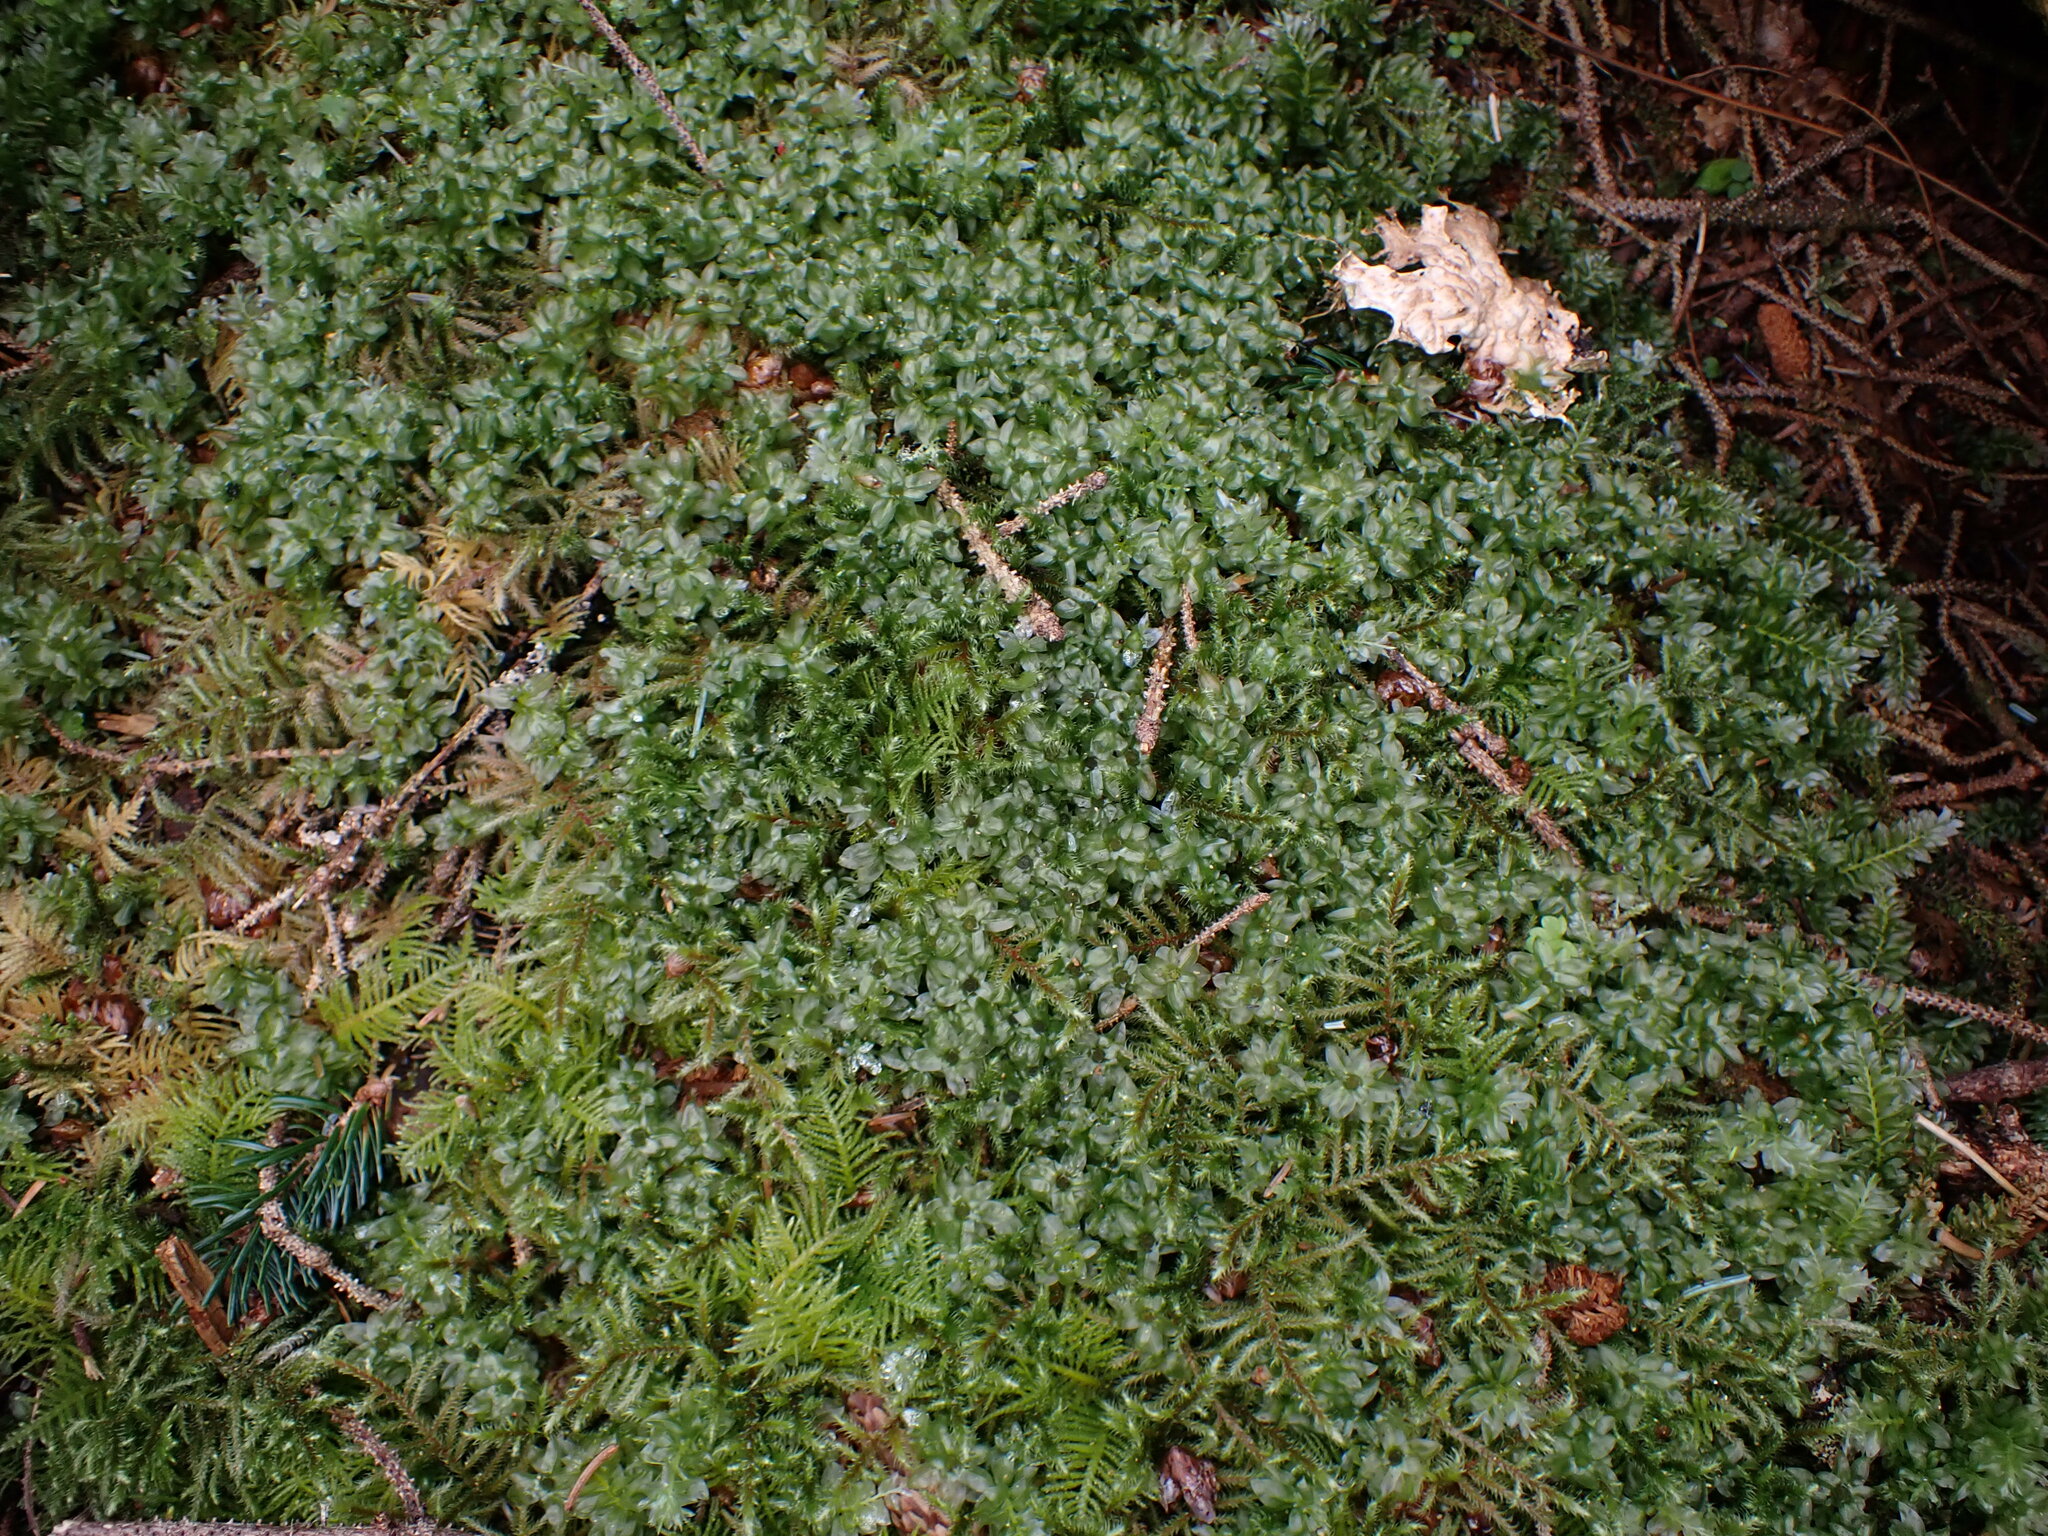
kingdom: Plantae
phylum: Bryophyta
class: Bryopsida
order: Bryales
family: Mniaceae
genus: Plagiomnium
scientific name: Plagiomnium insigne
